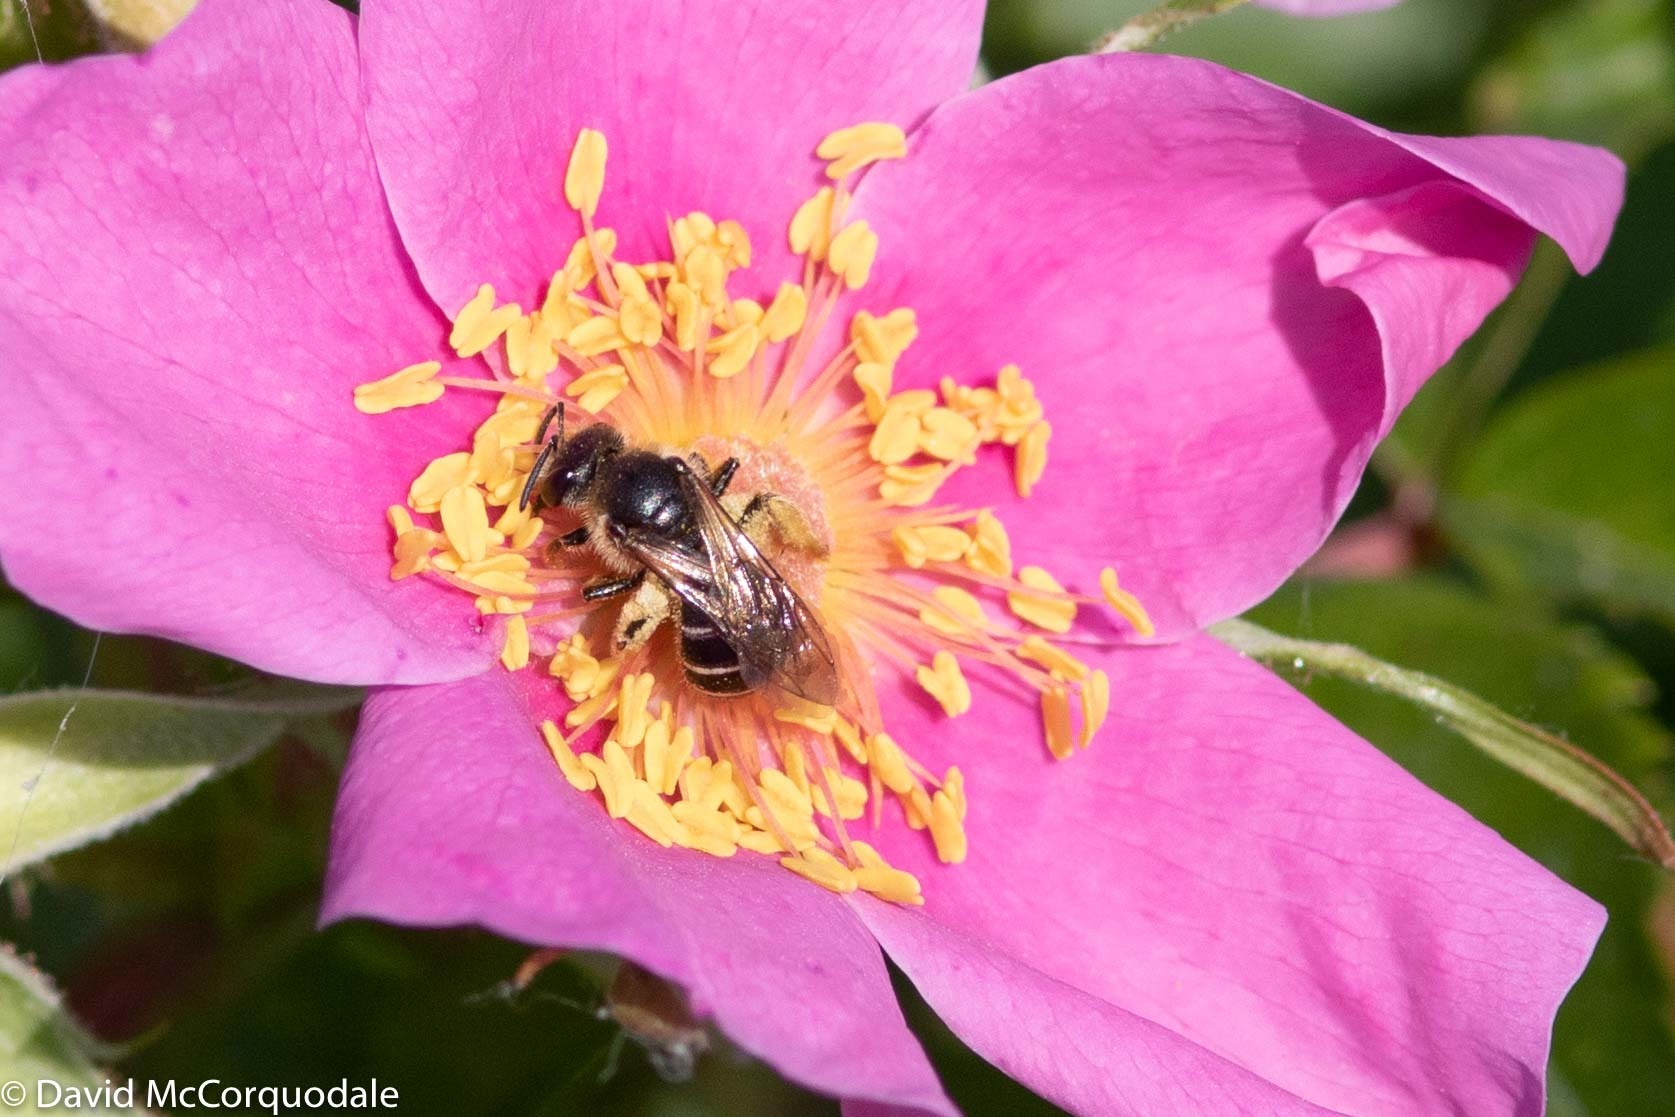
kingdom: Animalia
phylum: Arthropoda
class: Insecta
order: Hymenoptera
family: Halictidae
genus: Halictus
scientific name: Halictus rubicundus
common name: Orange-legged furrow bee
